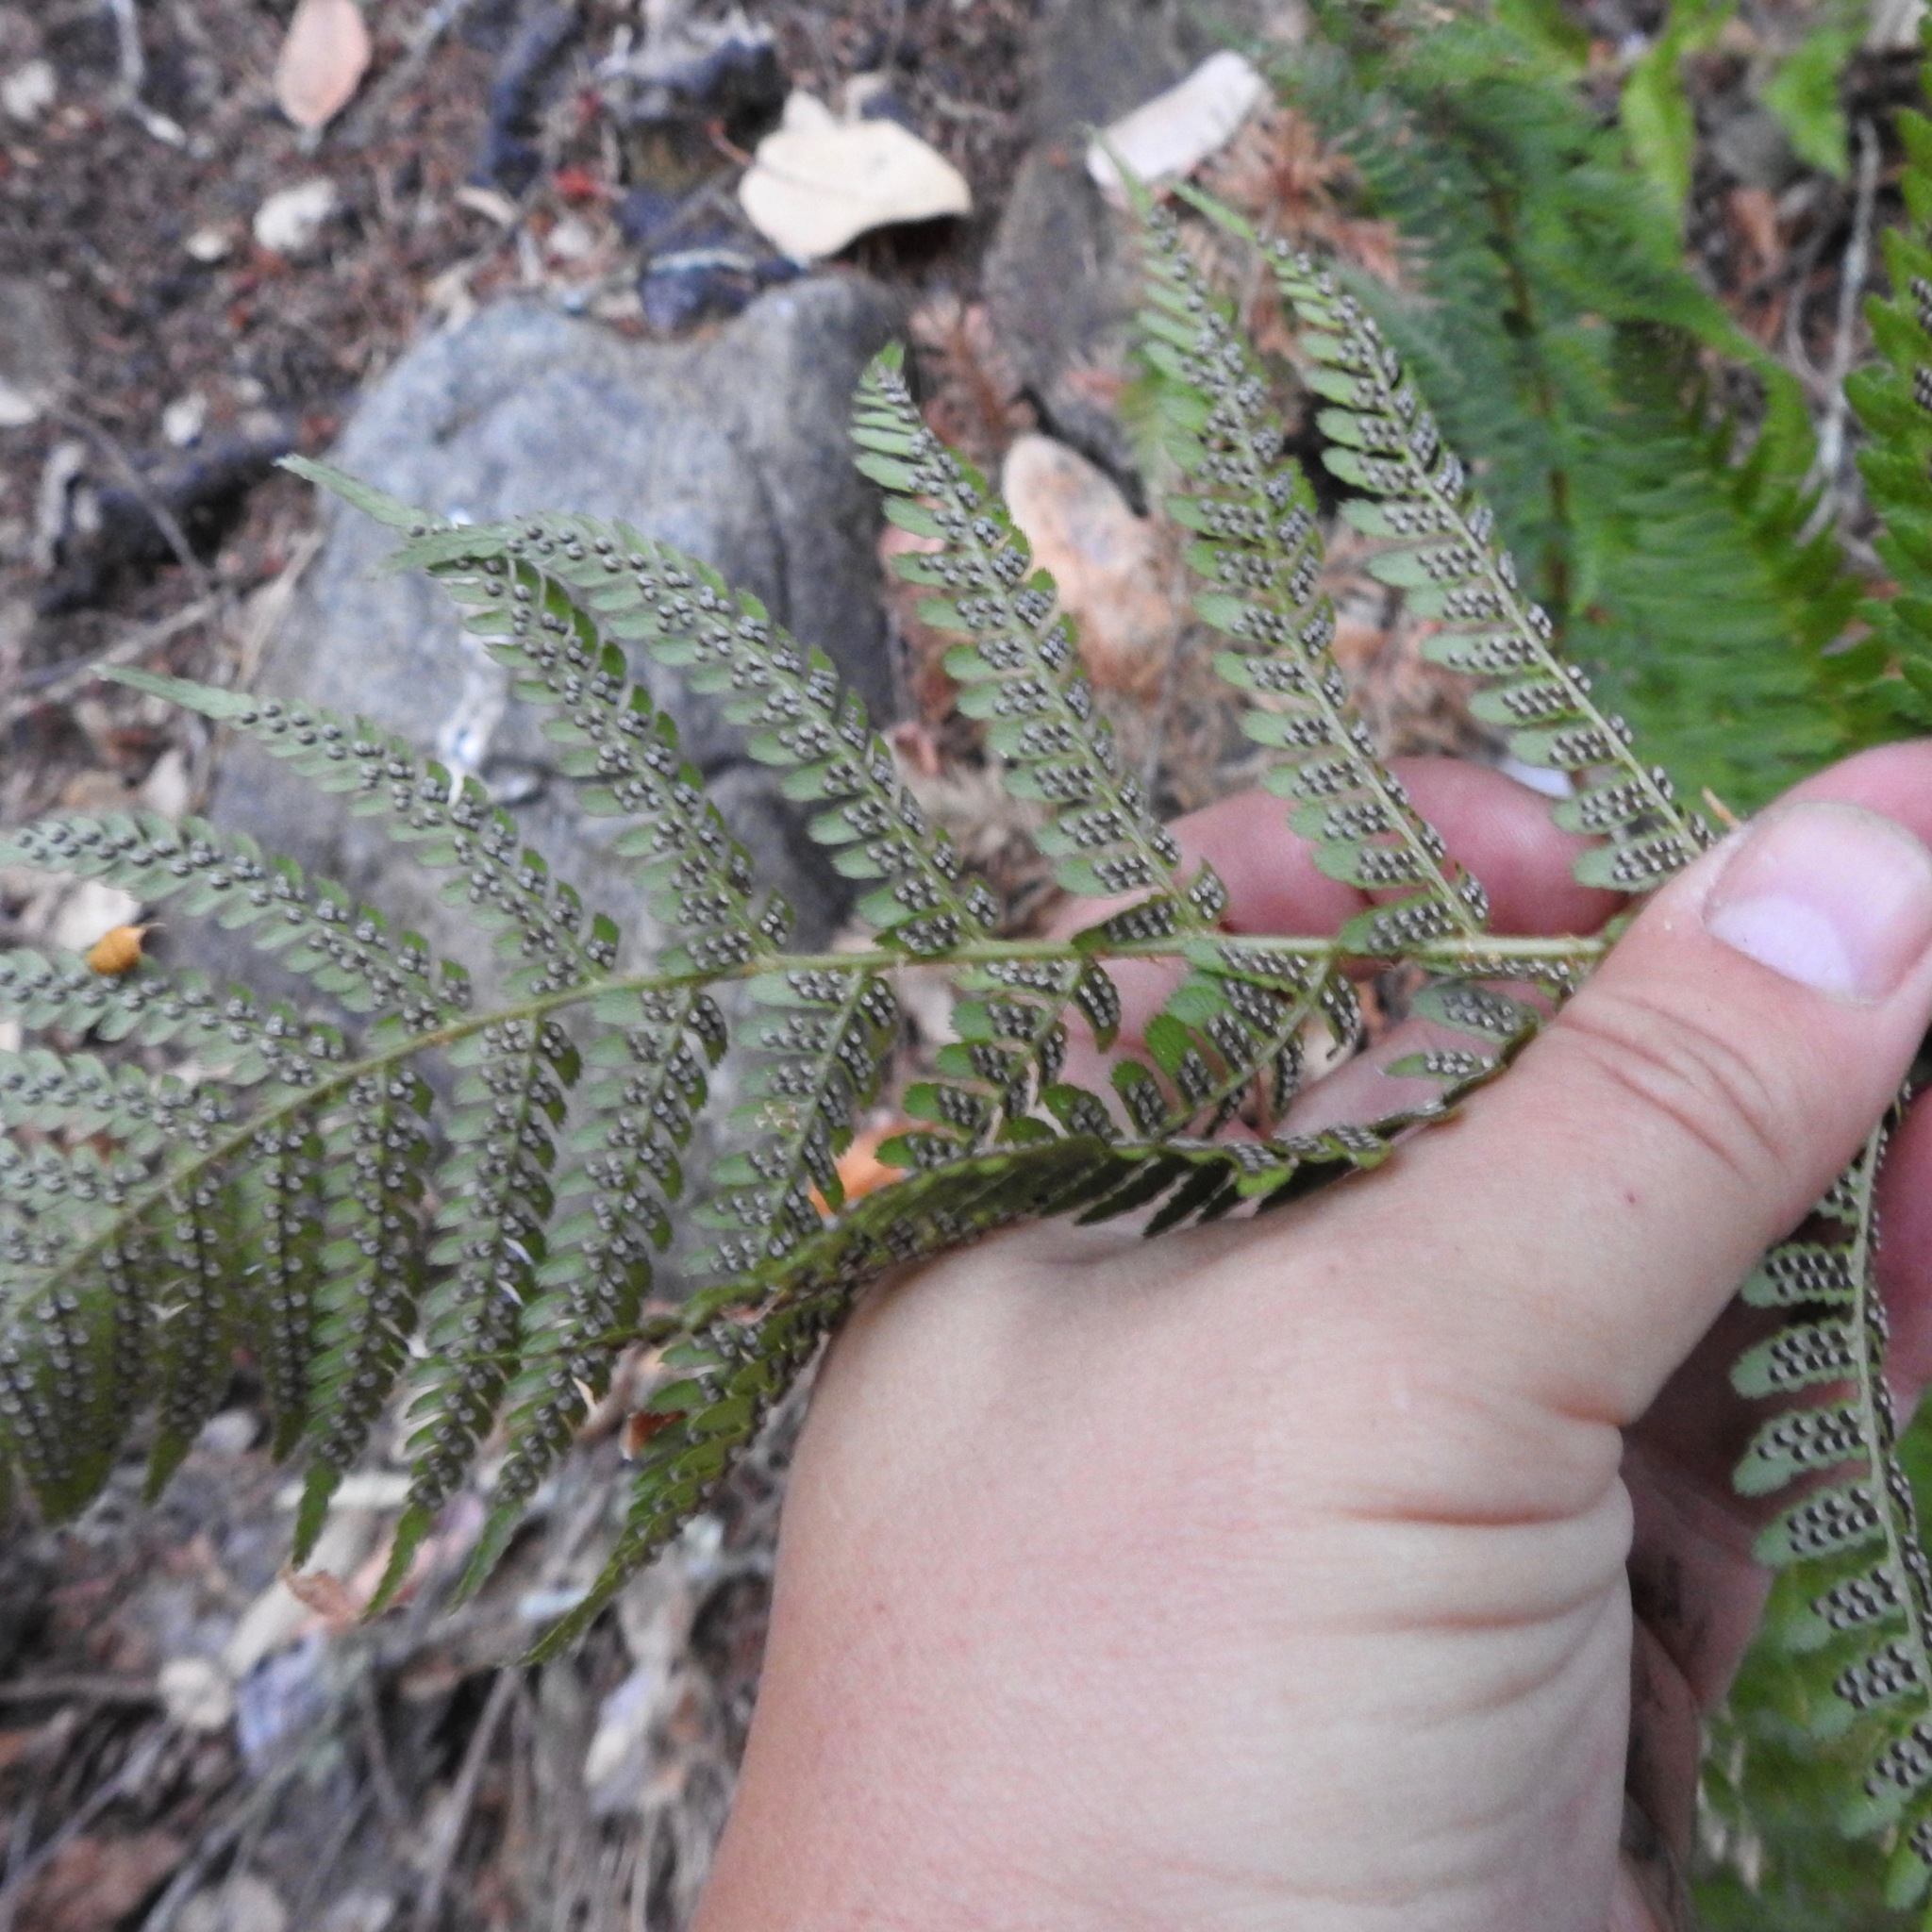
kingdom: Plantae
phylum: Tracheophyta
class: Polypodiopsida
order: Polypodiales
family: Dryopteridaceae
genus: Dryopteris
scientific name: Dryopteris arguta
